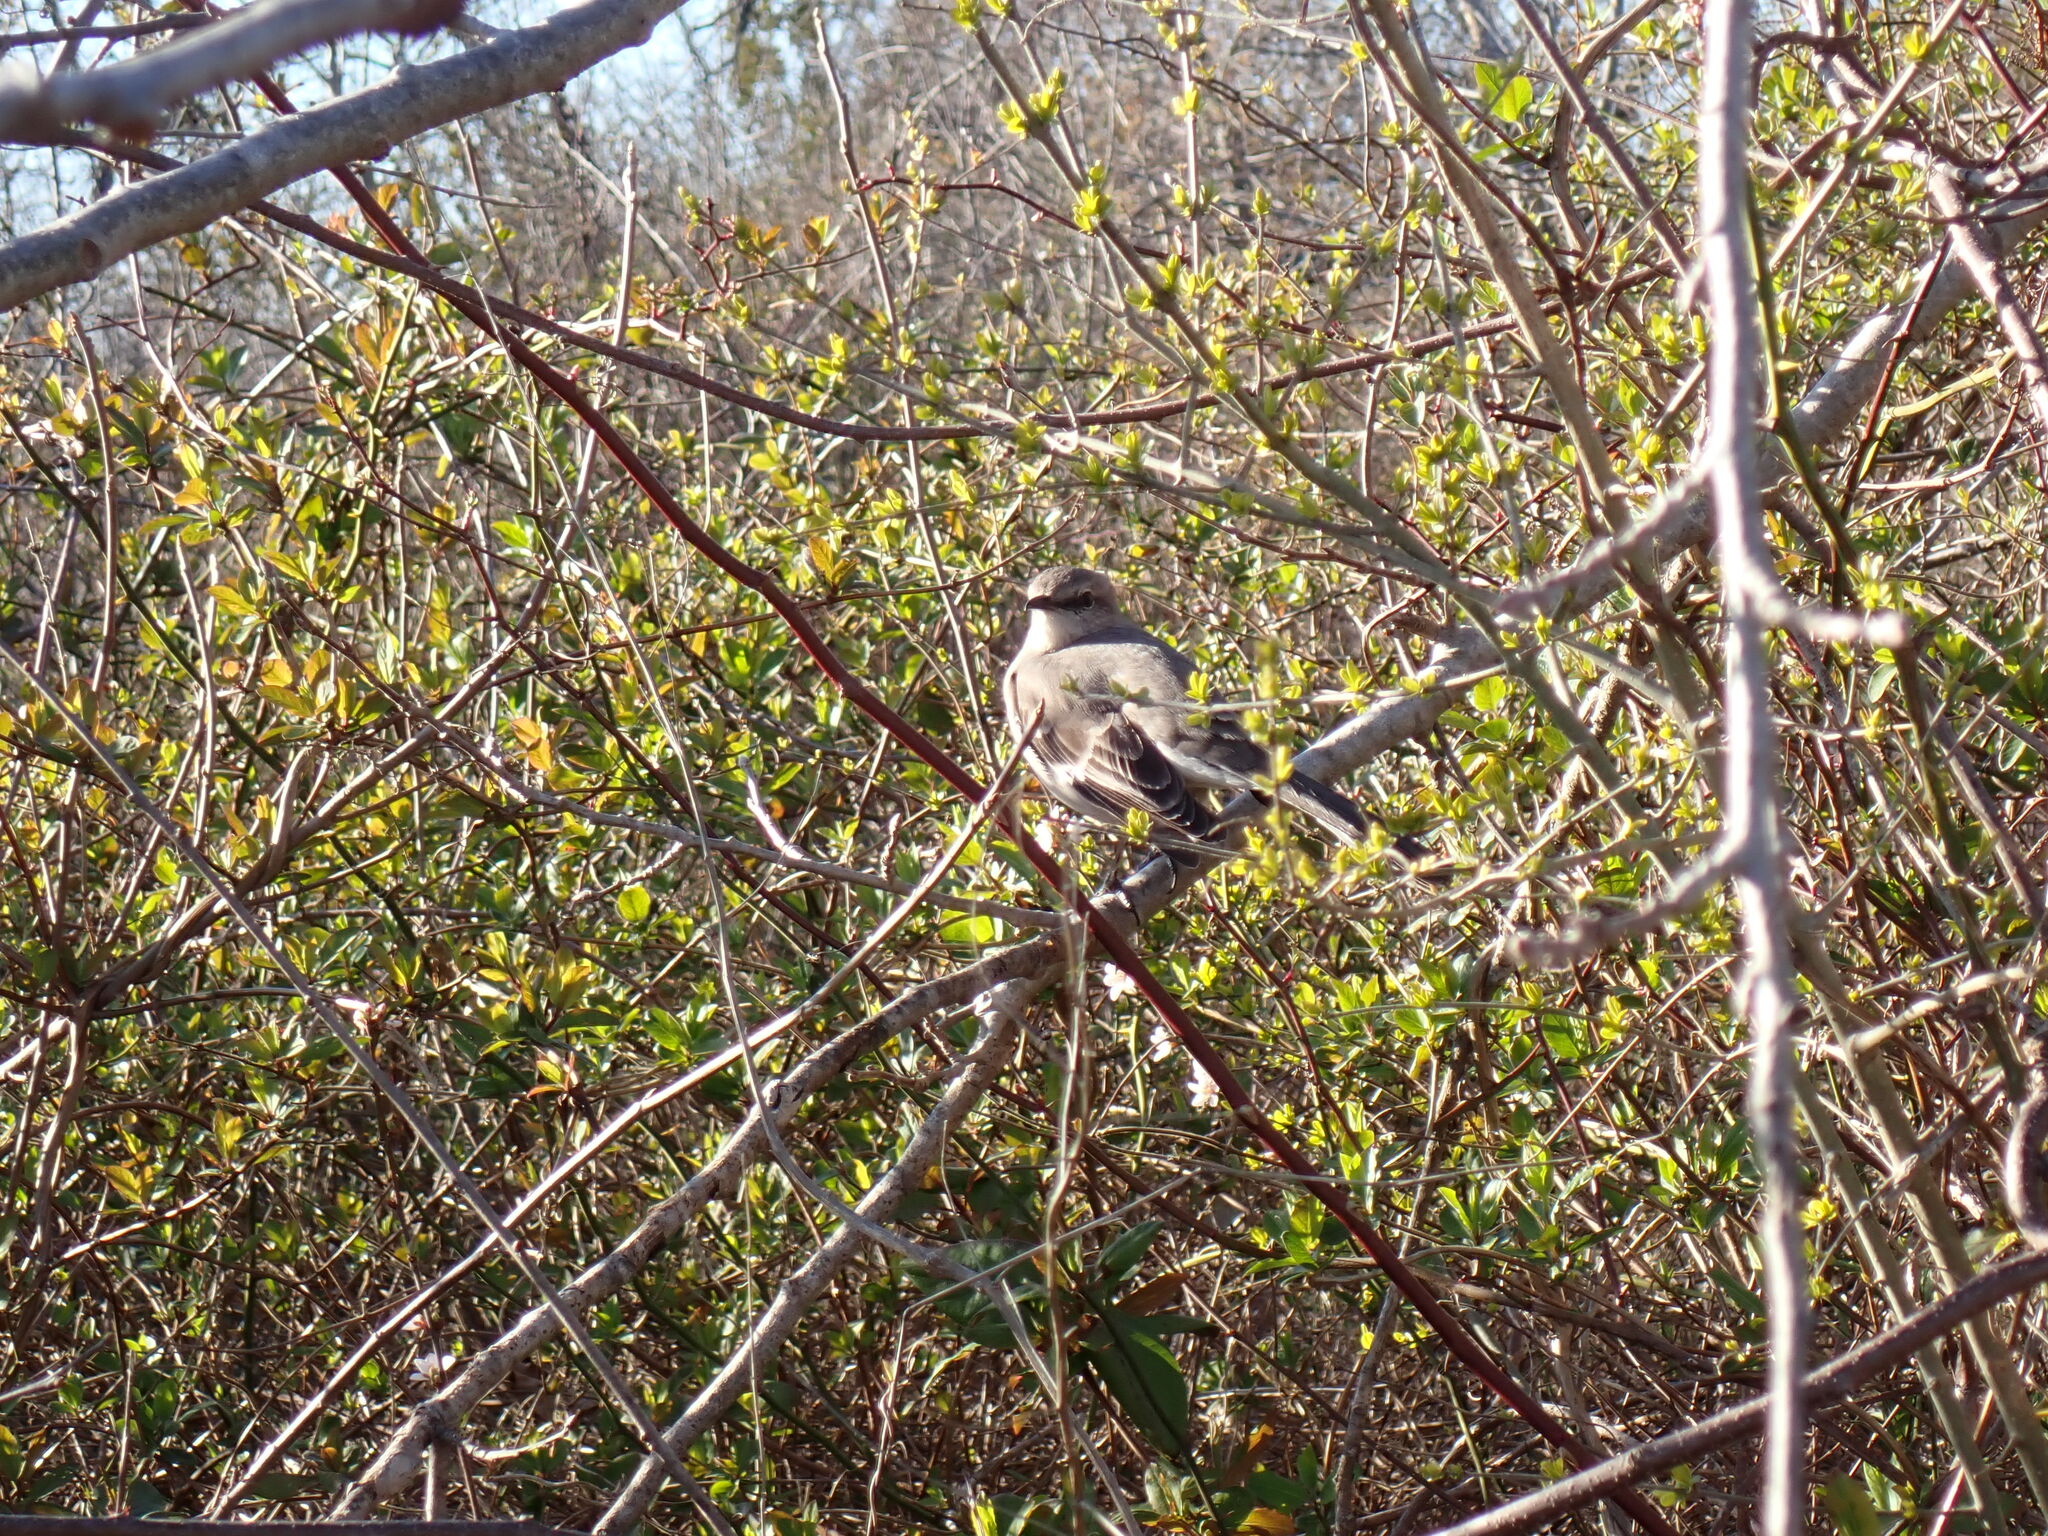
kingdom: Animalia
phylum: Chordata
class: Aves
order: Passeriformes
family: Mimidae
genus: Mimus
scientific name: Mimus polyglottos
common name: Northern mockingbird
